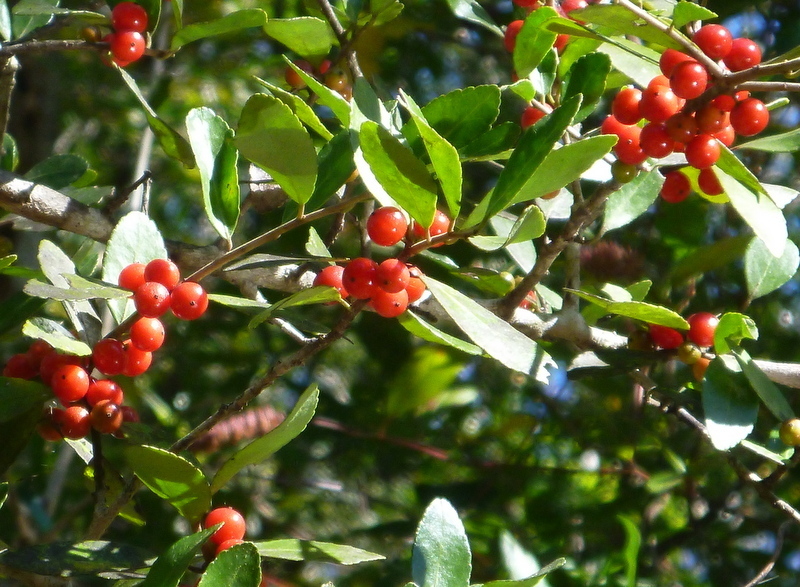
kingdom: Plantae
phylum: Tracheophyta
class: Magnoliopsida
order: Aquifoliales
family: Aquifoliaceae
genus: Ilex
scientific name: Ilex vomitoria
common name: Yaupon holly
